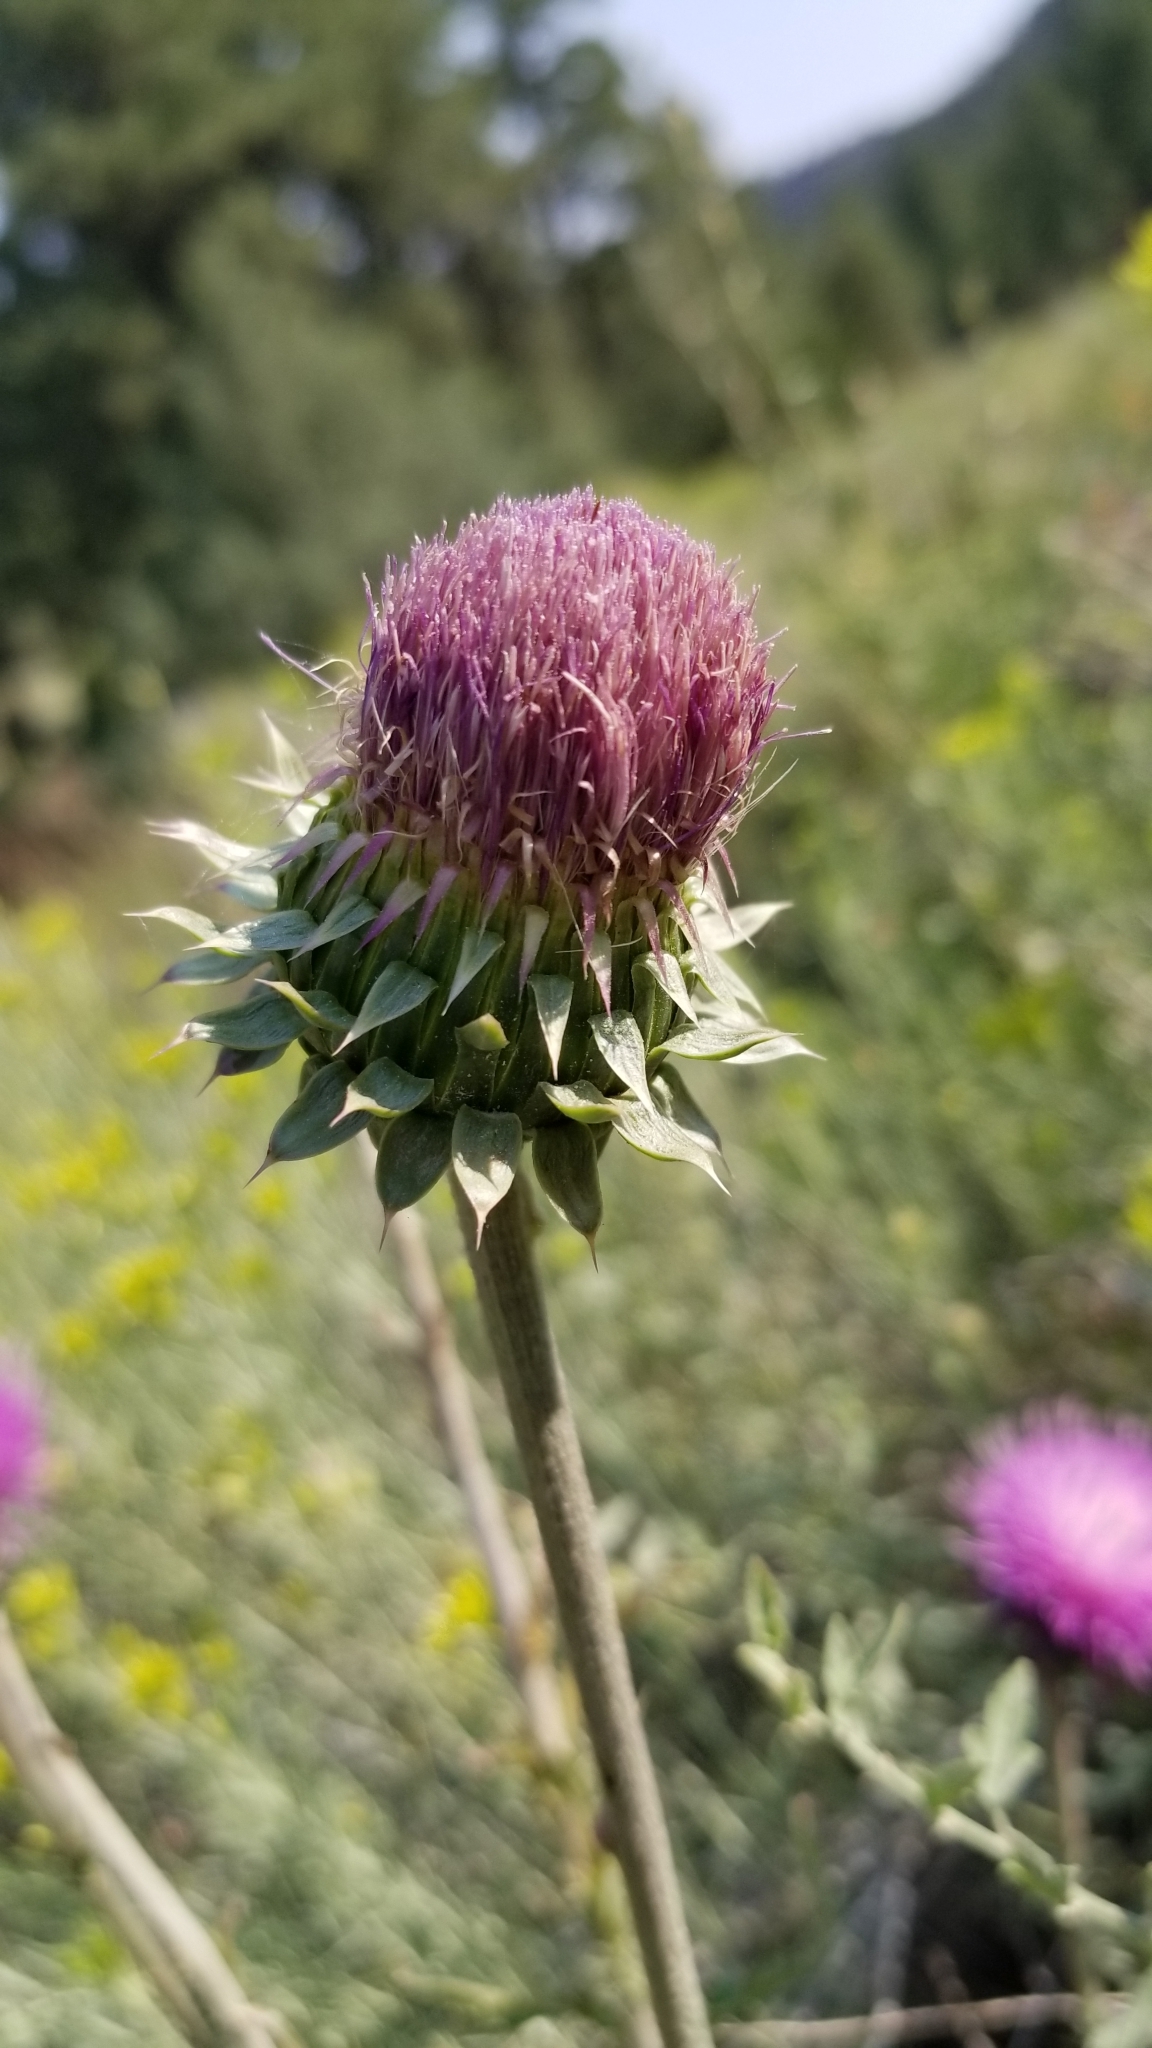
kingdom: Plantae
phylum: Tracheophyta
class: Magnoliopsida
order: Asterales
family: Asteraceae
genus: Carduus
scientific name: Carduus nutans
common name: Musk thistle
